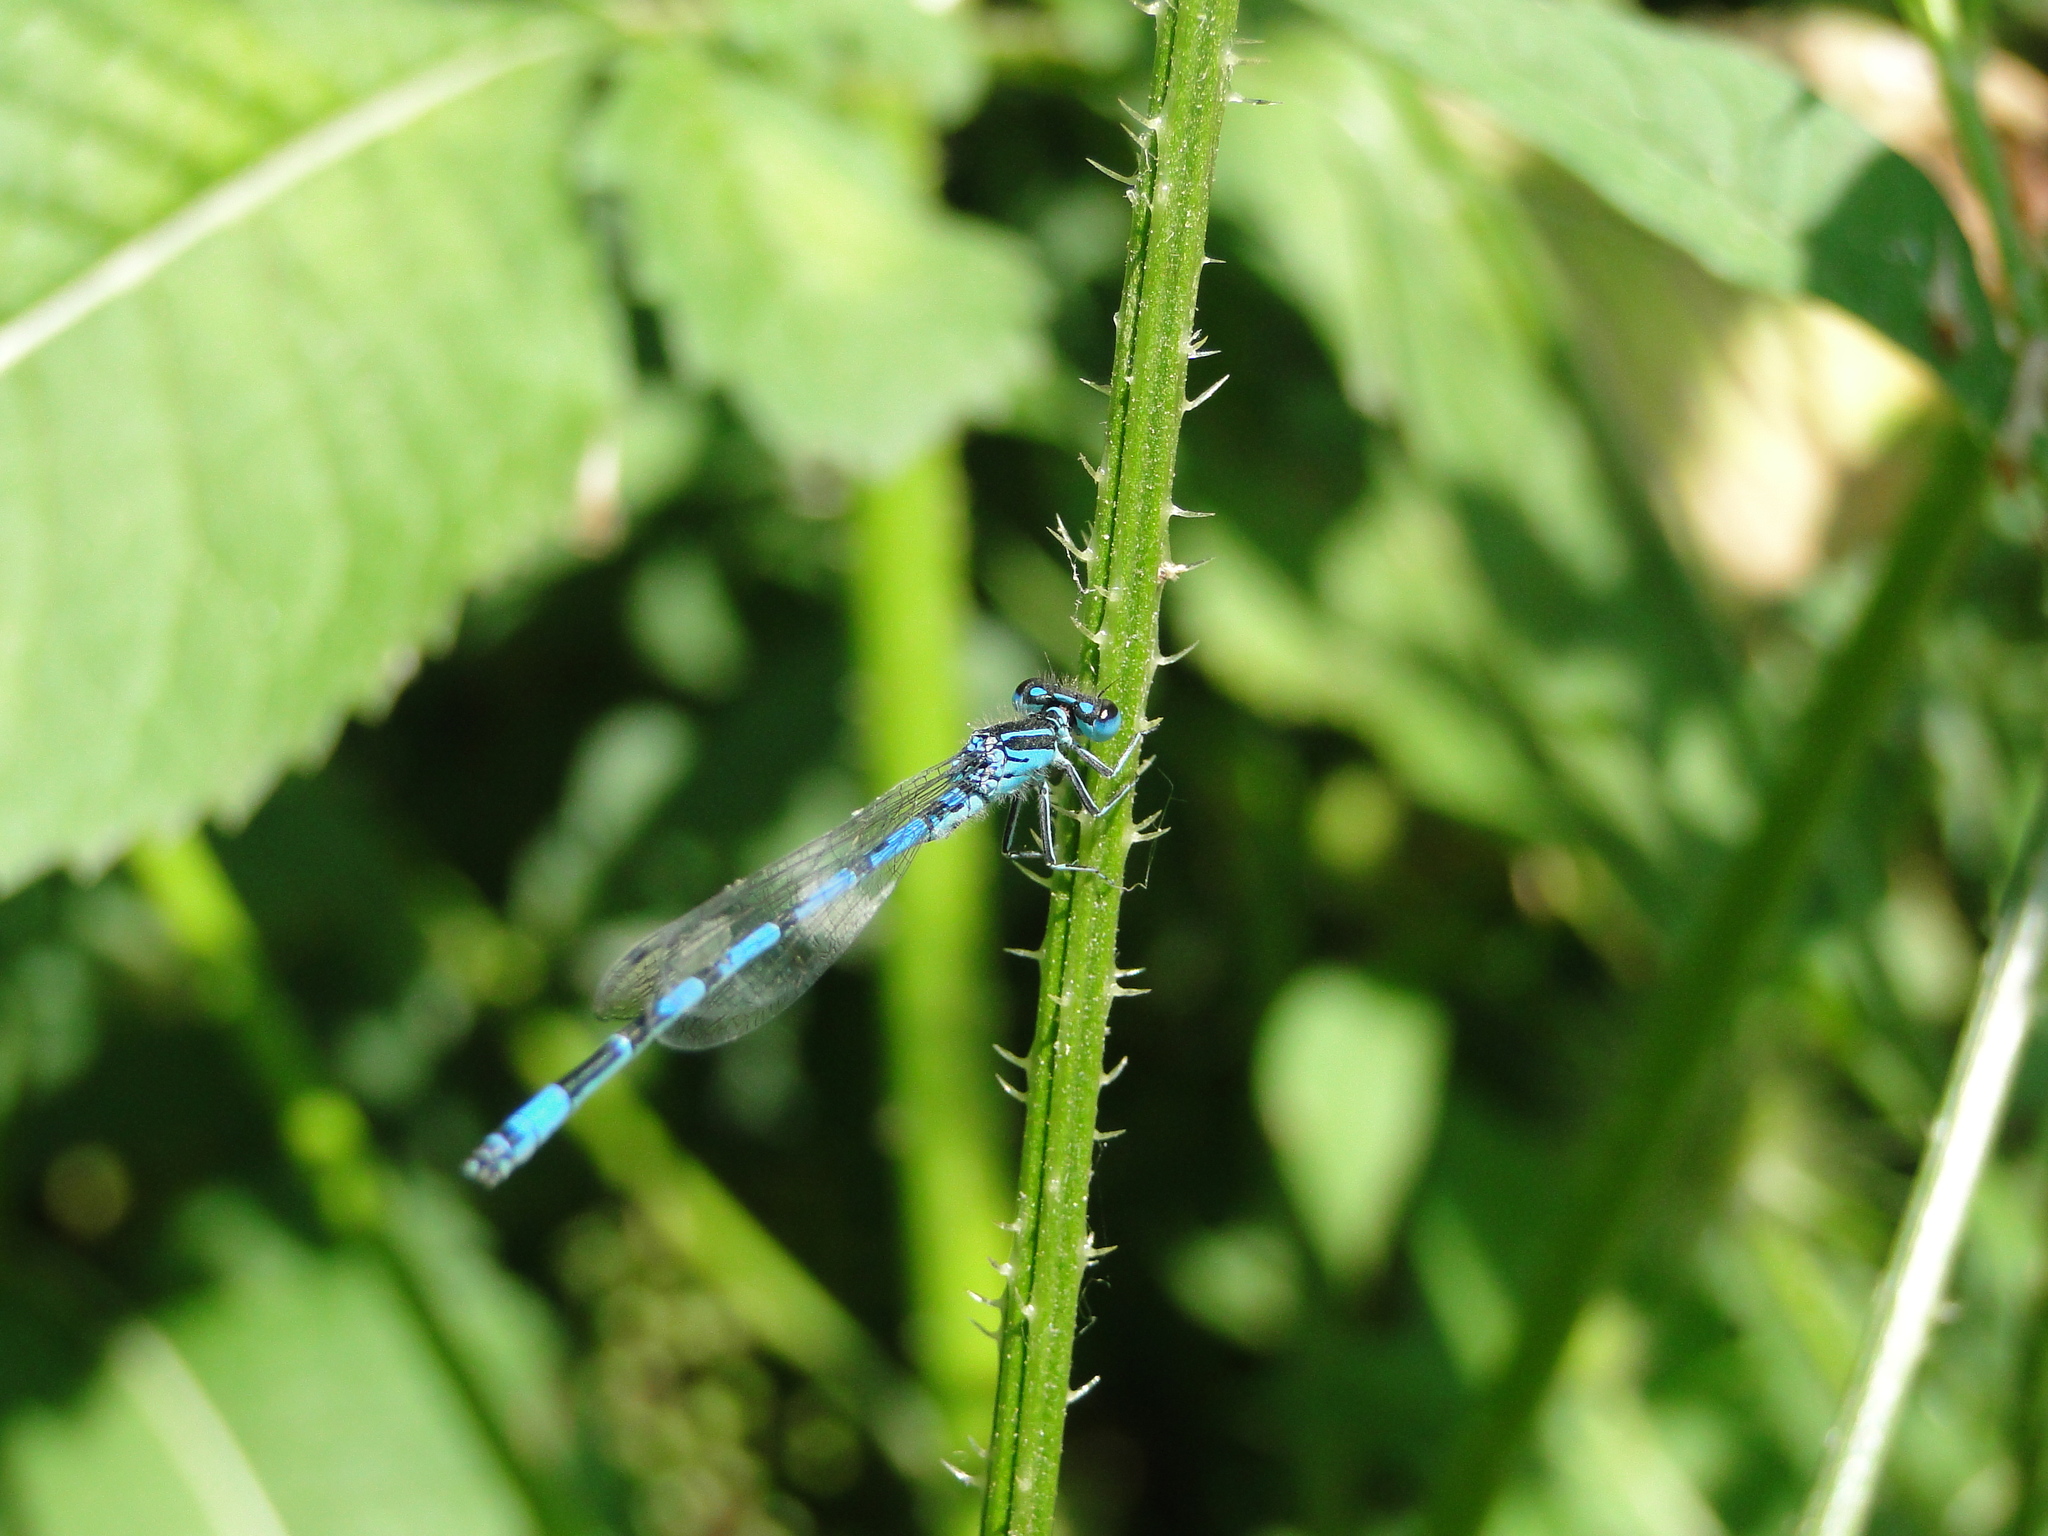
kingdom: Animalia
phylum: Arthropoda
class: Insecta
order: Odonata
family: Coenagrionidae
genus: Coenagrion
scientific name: Coenagrion mercuriale
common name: Southern damselfly
